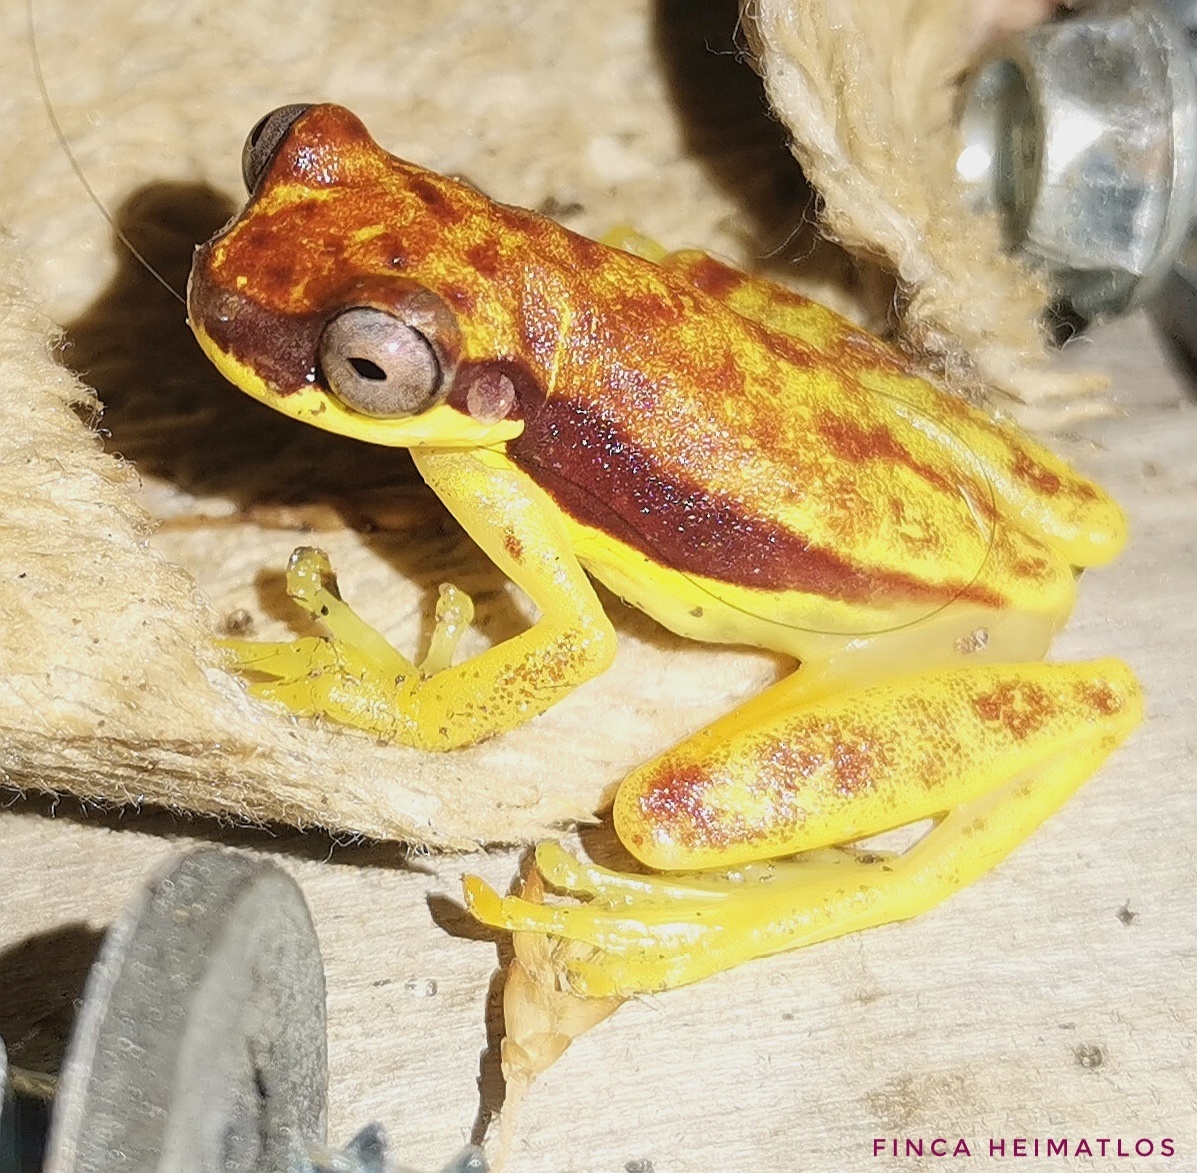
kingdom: Animalia
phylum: Chordata
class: Amphibia
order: Anura
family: Hylidae
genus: Dendropsophus
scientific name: Dendropsophus rhodopeplus
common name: Red-skirted treefrog
